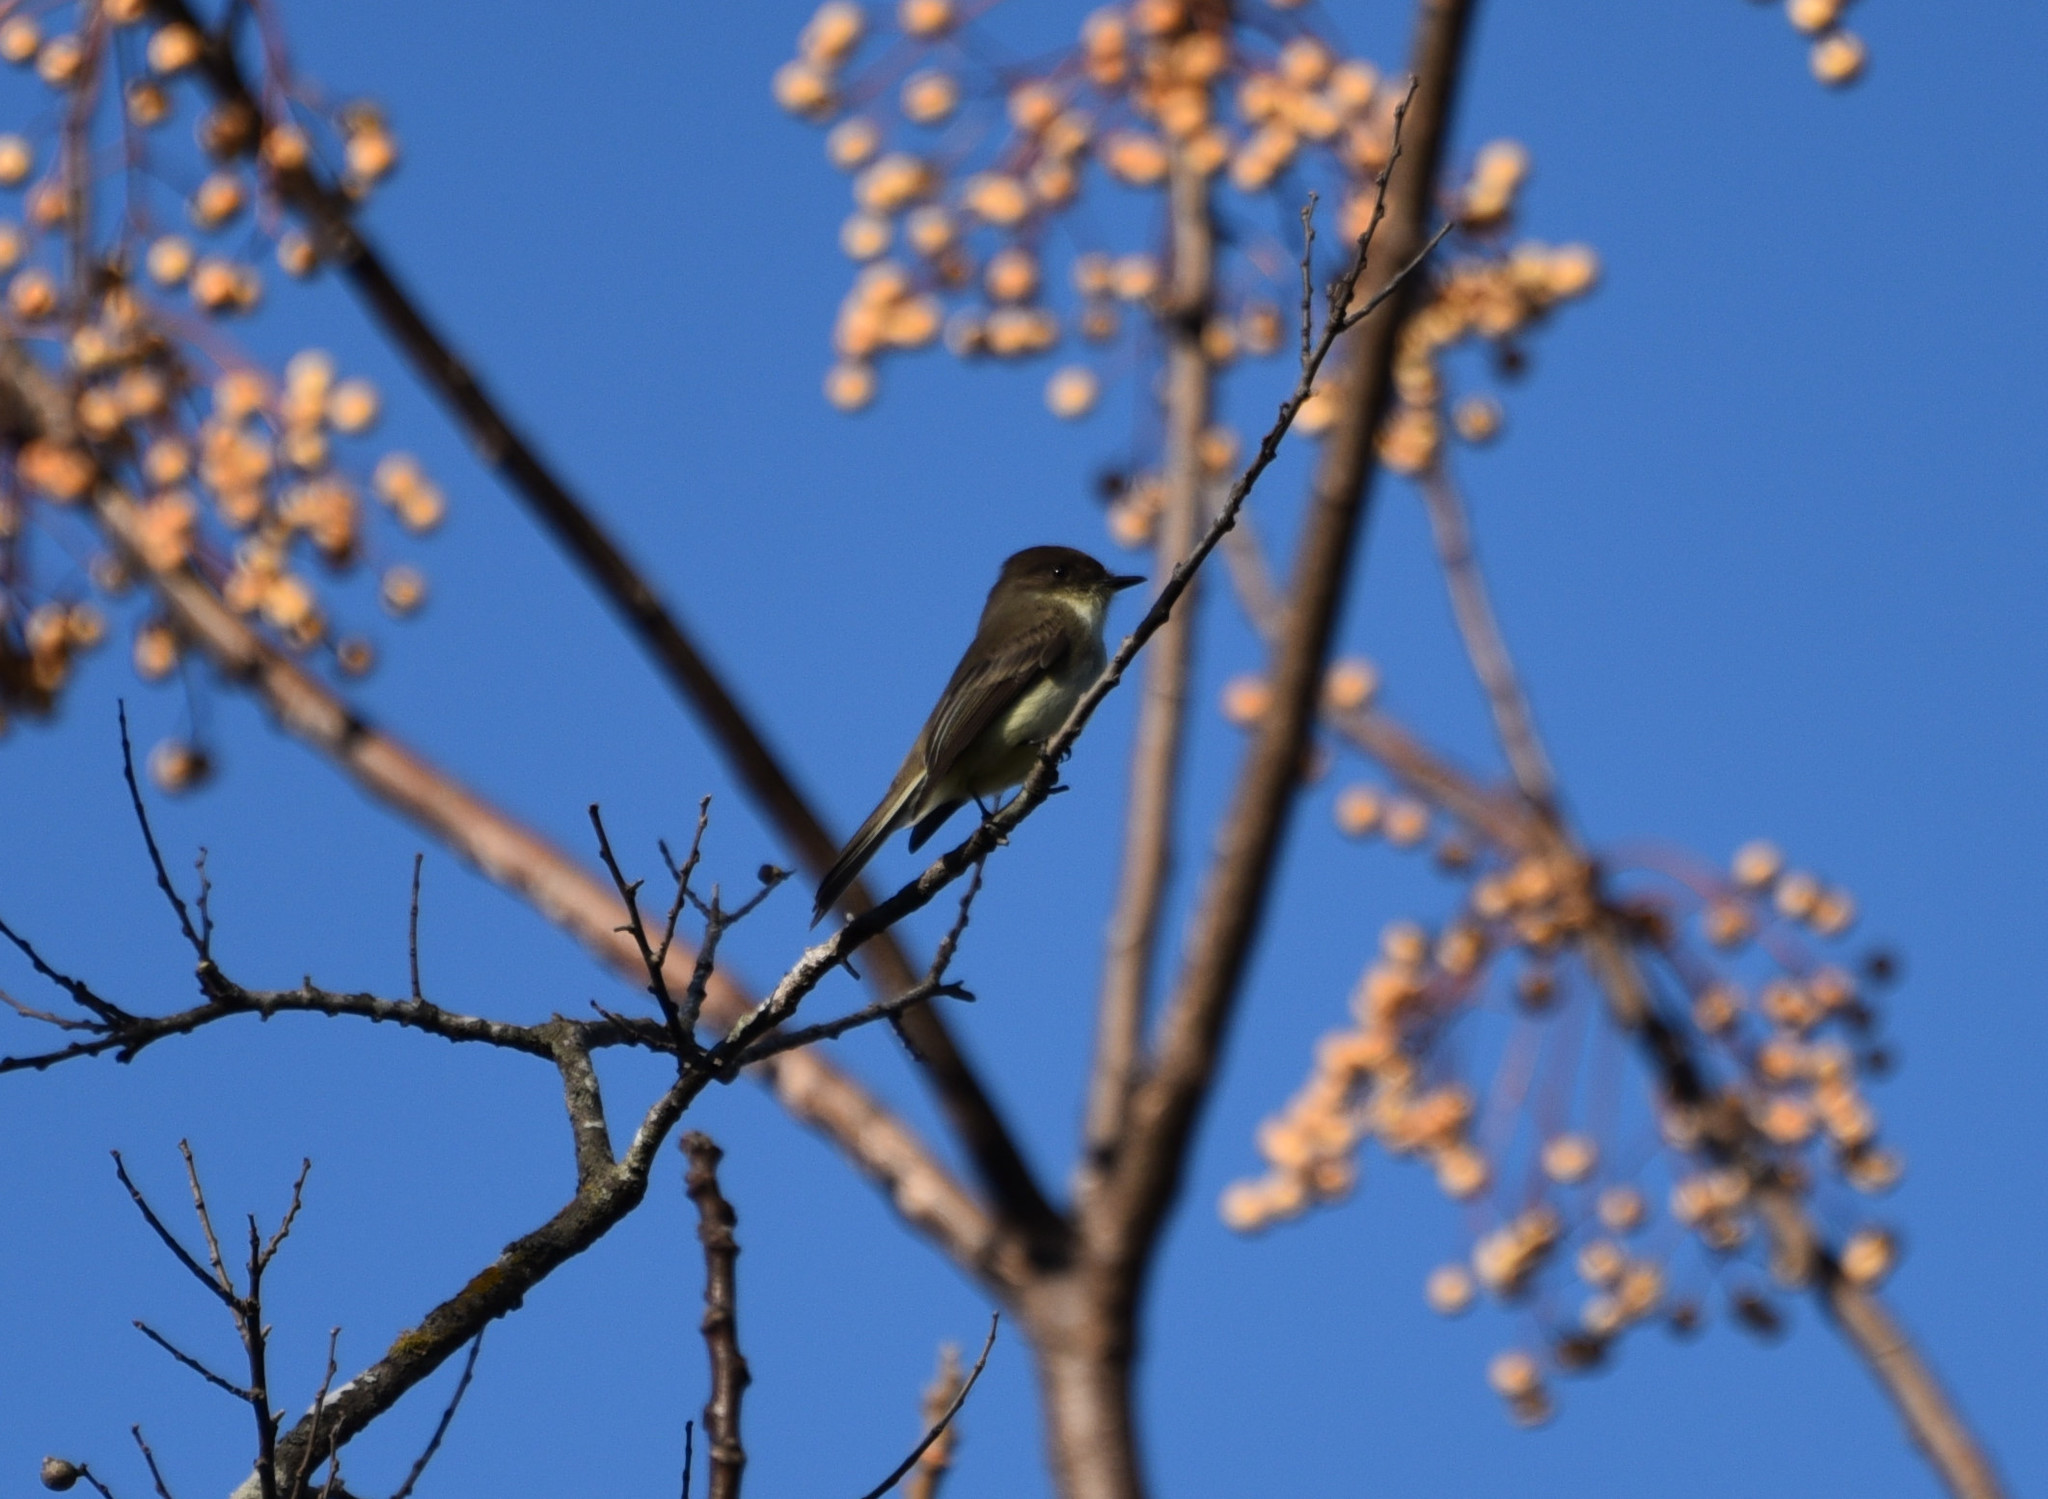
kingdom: Animalia
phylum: Chordata
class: Aves
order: Passeriformes
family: Tyrannidae
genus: Sayornis
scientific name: Sayornis phoebe
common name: Eastern phoebe
